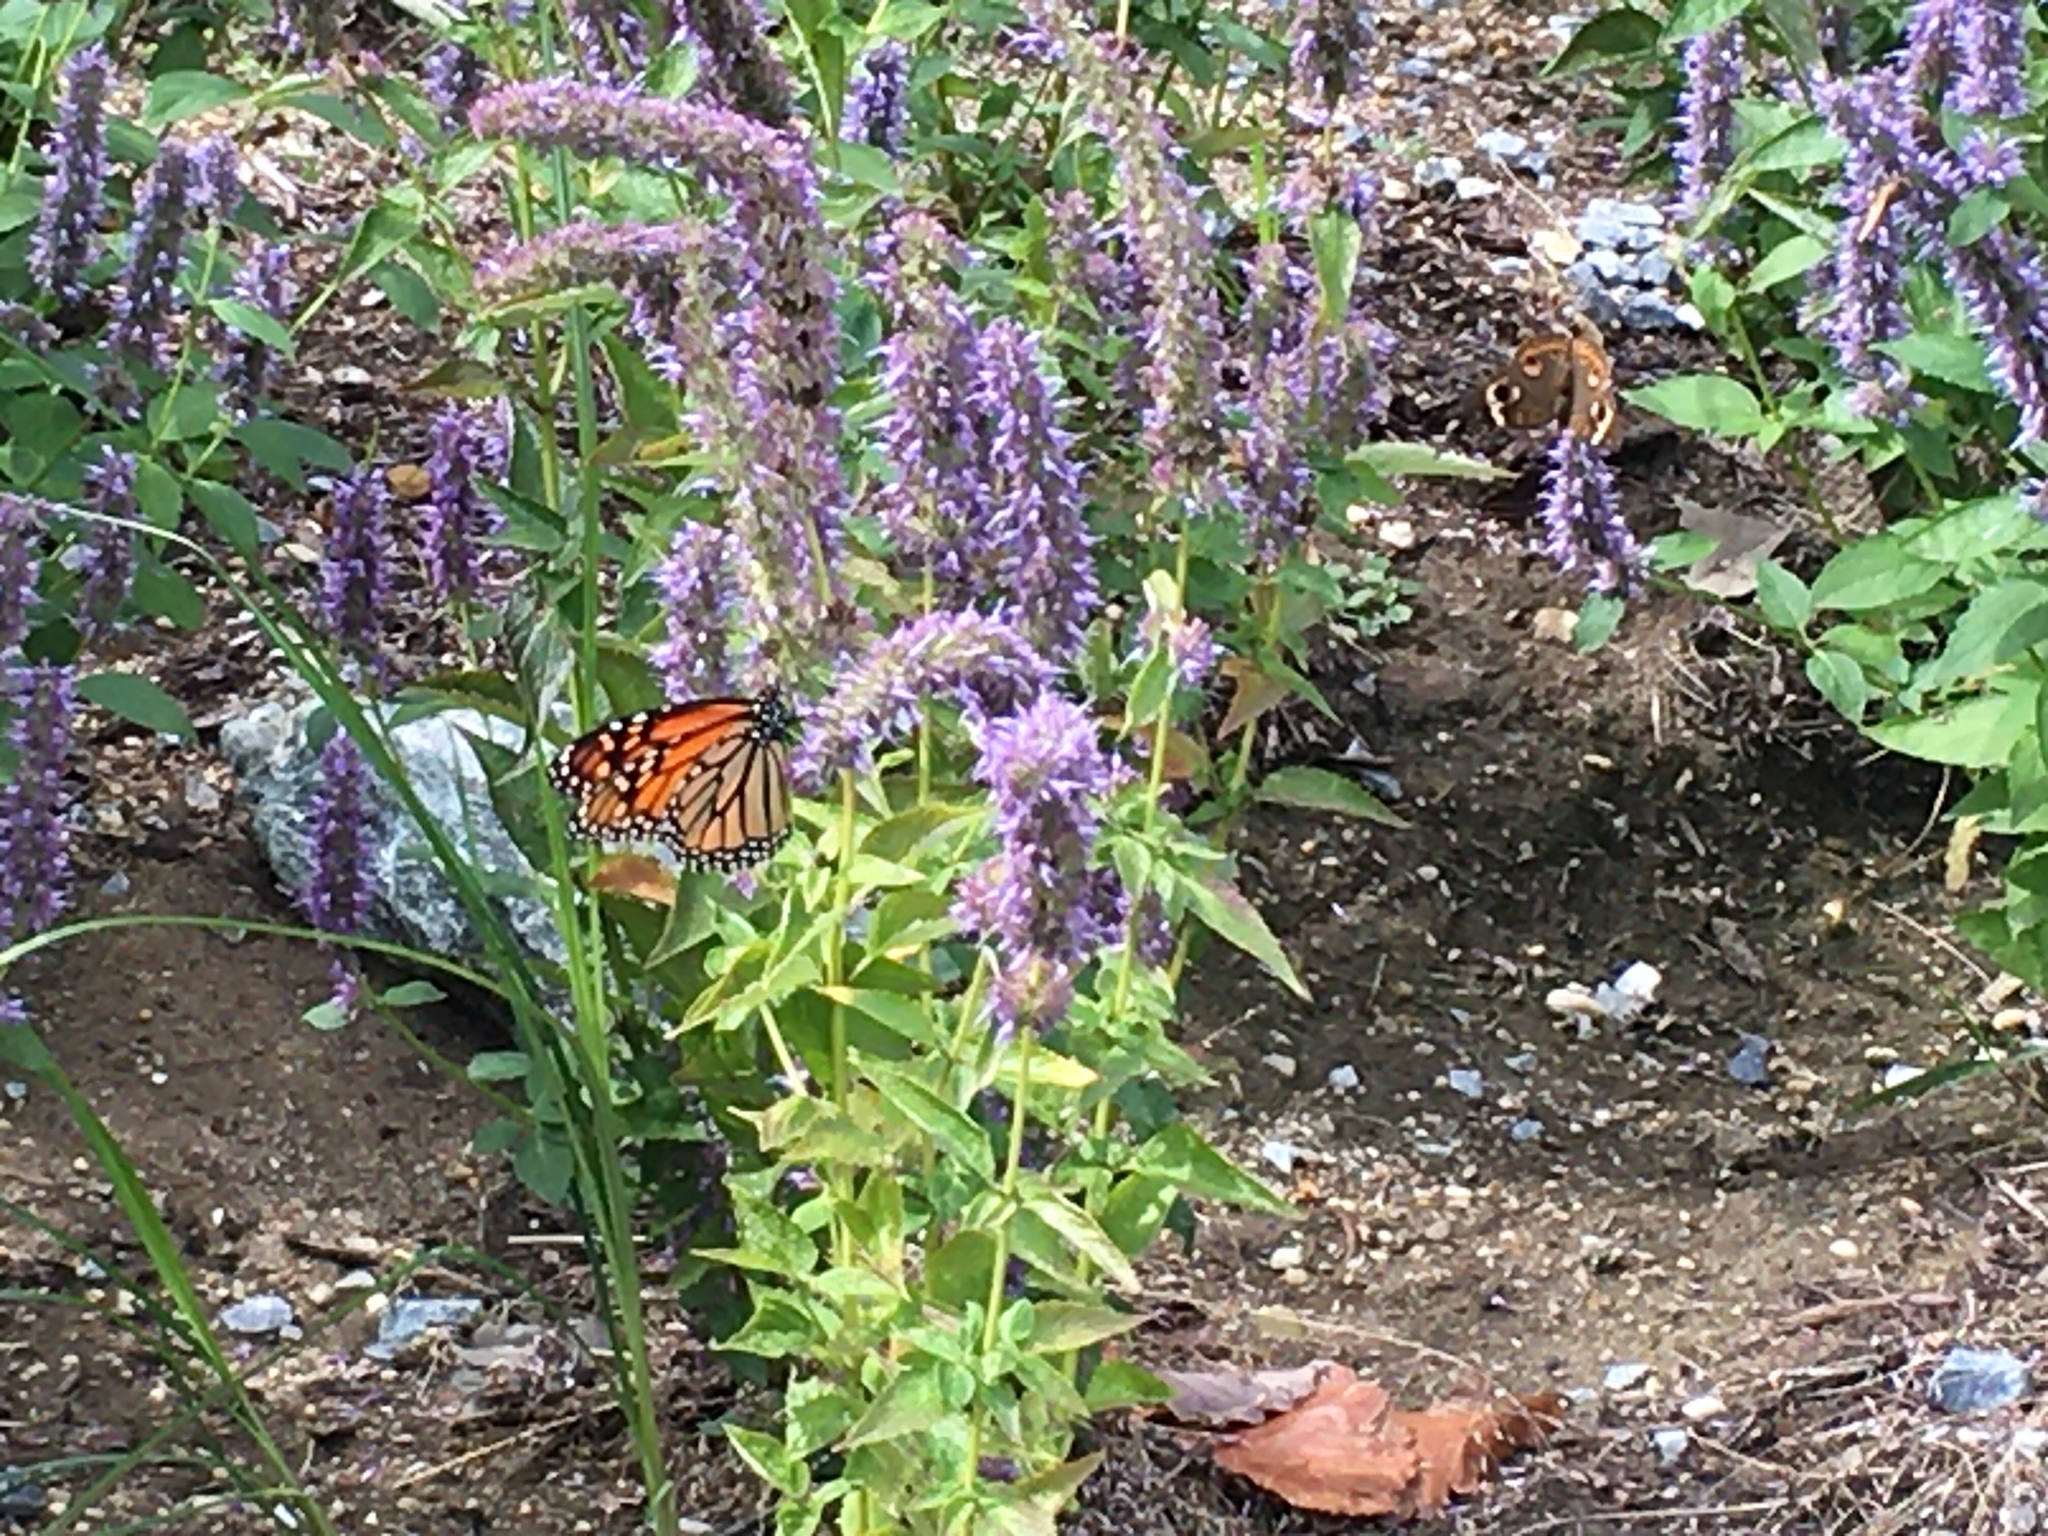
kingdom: Animalia
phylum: Arthropoda
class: Insecta
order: Lepidoptera
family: Nymphalidae
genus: Danaus
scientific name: Danaus plexippus
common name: Monarch
